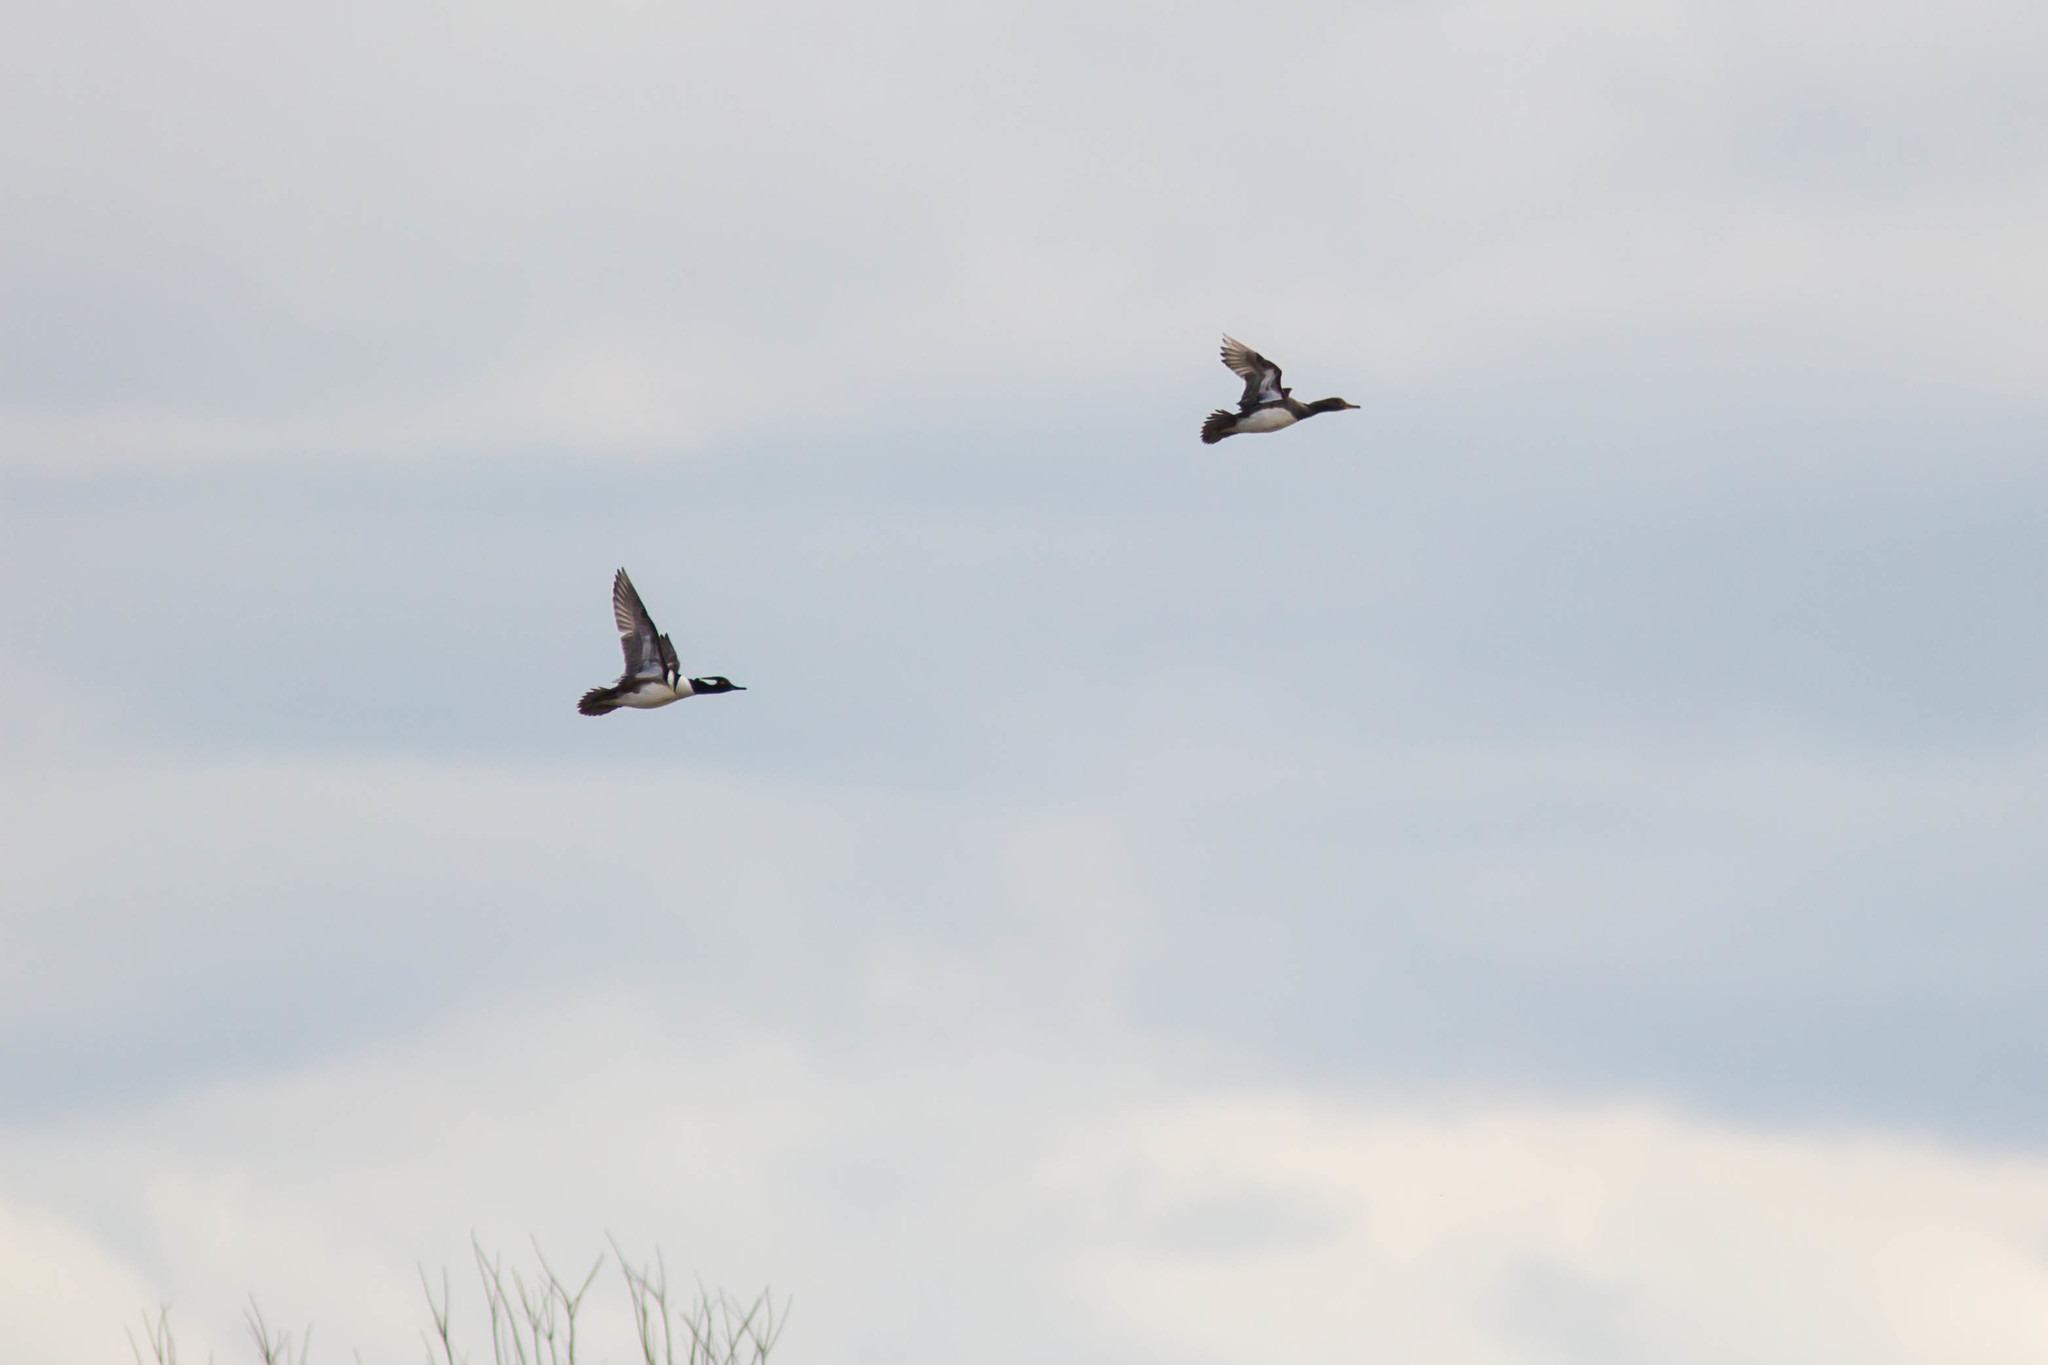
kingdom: Animalia
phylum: Chordata
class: Aves
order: Anseriformes
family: Anatidae
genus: Lophodytes
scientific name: Lophodytes cucullatus
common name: Hooded merganser
